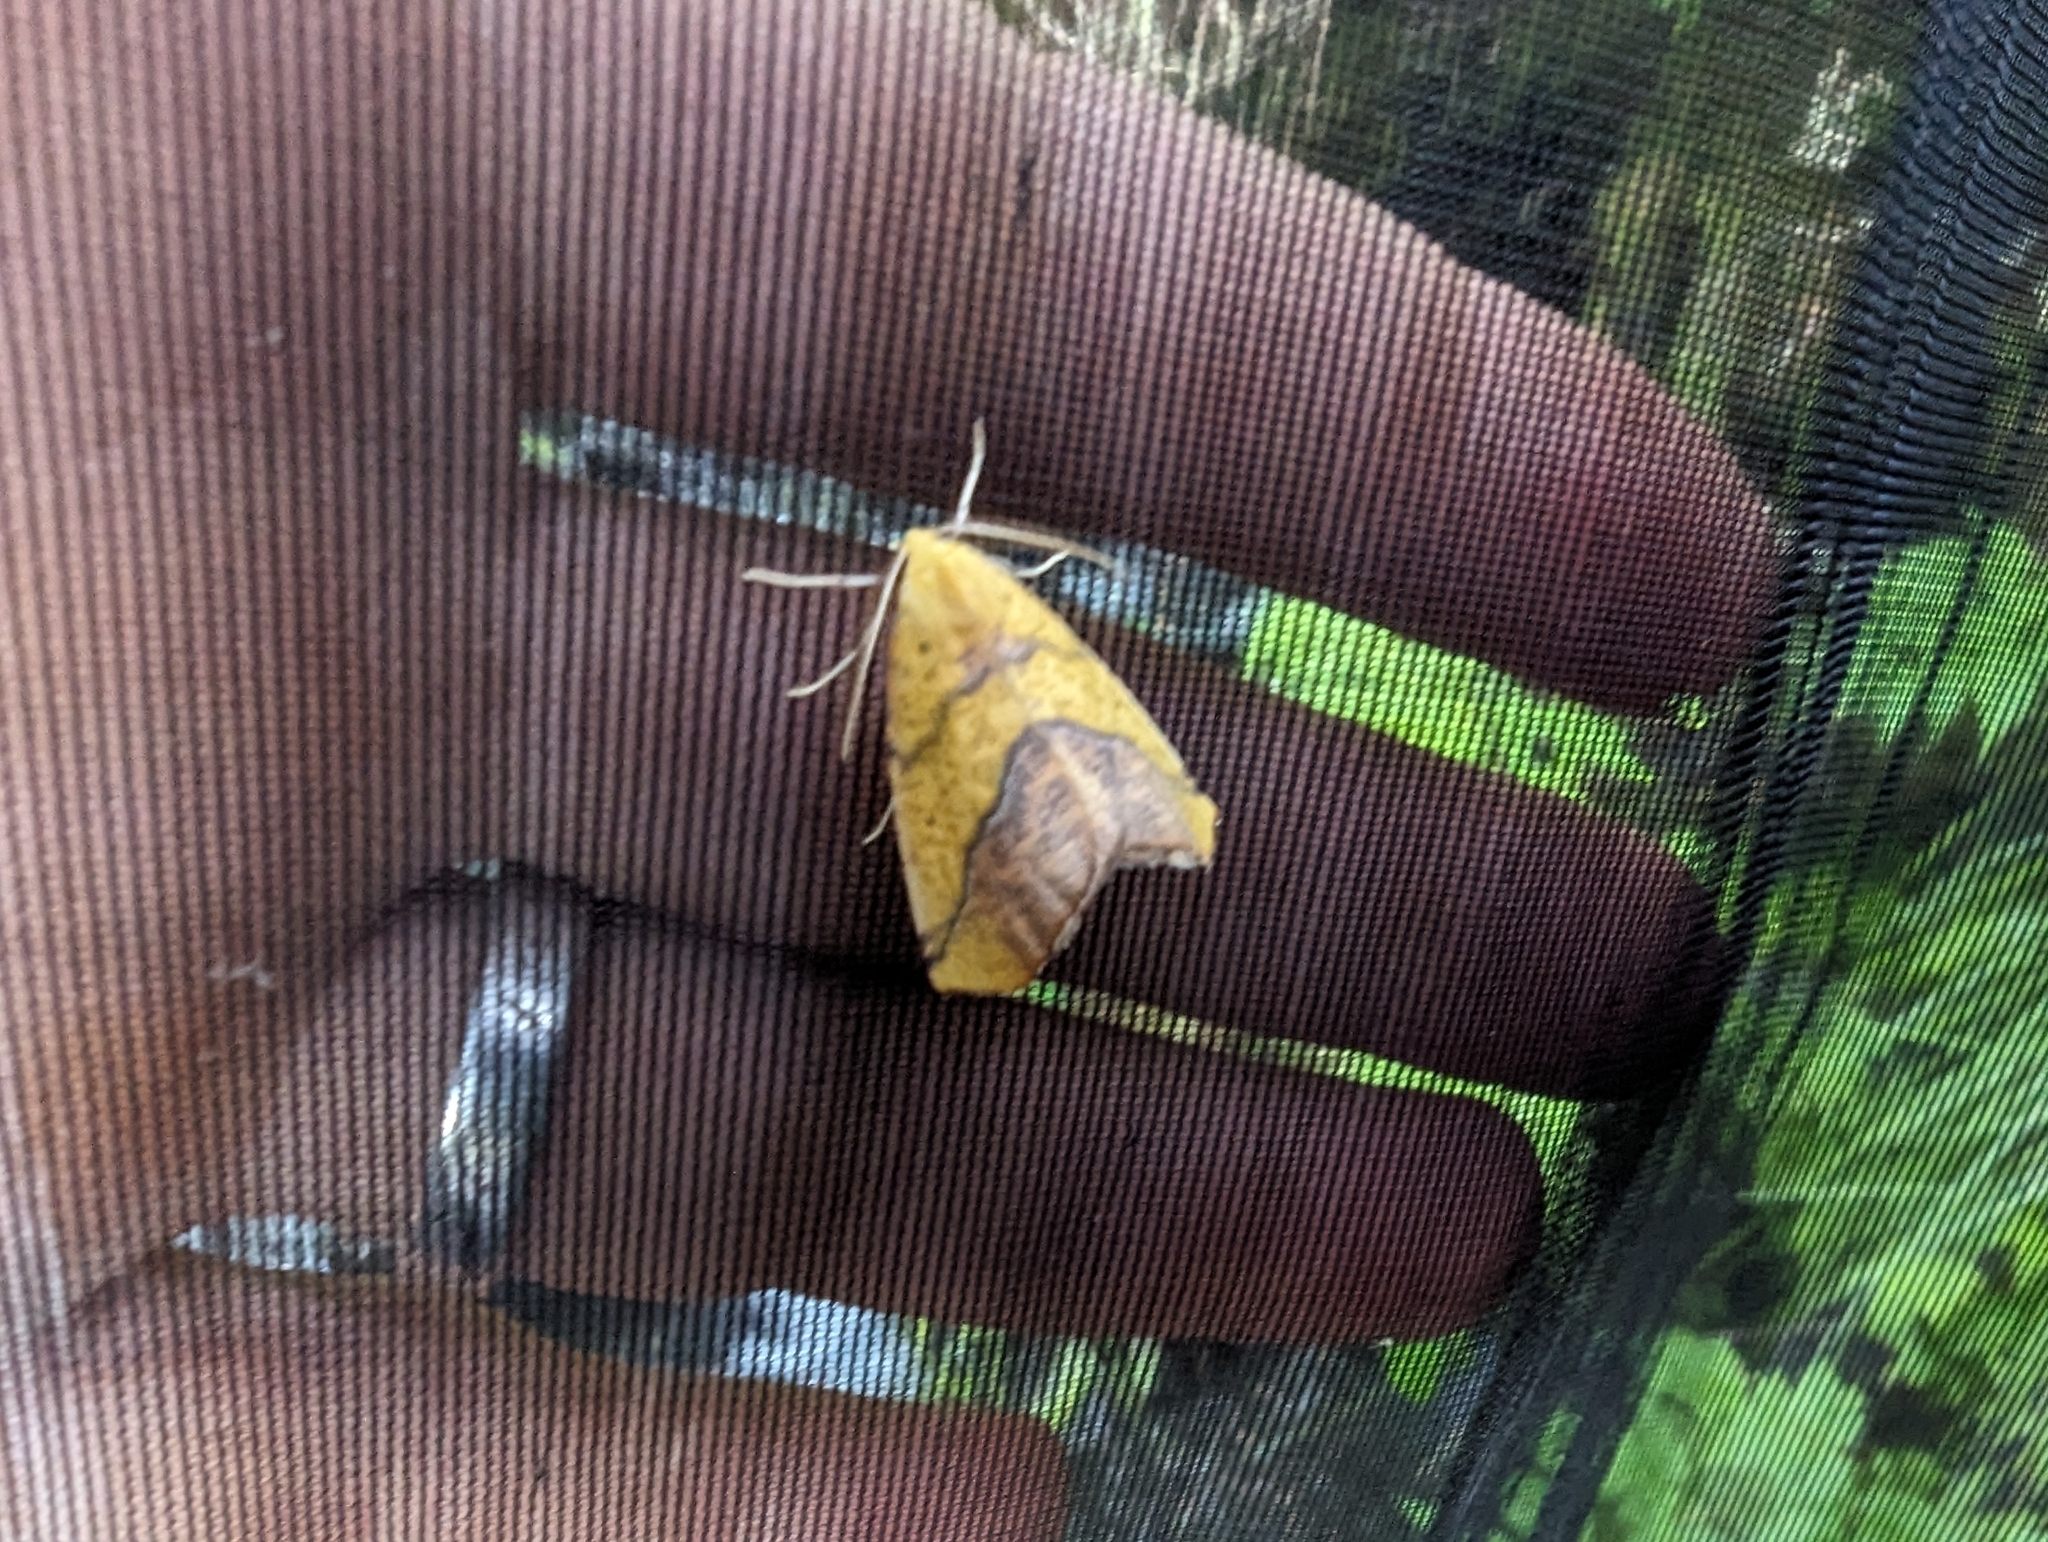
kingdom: Animalia
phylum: Arthropoda
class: Insecta
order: Lepidoptera
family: Geometridae
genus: Sicya
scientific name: Sicya macularia
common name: Sharp-lined yellow
